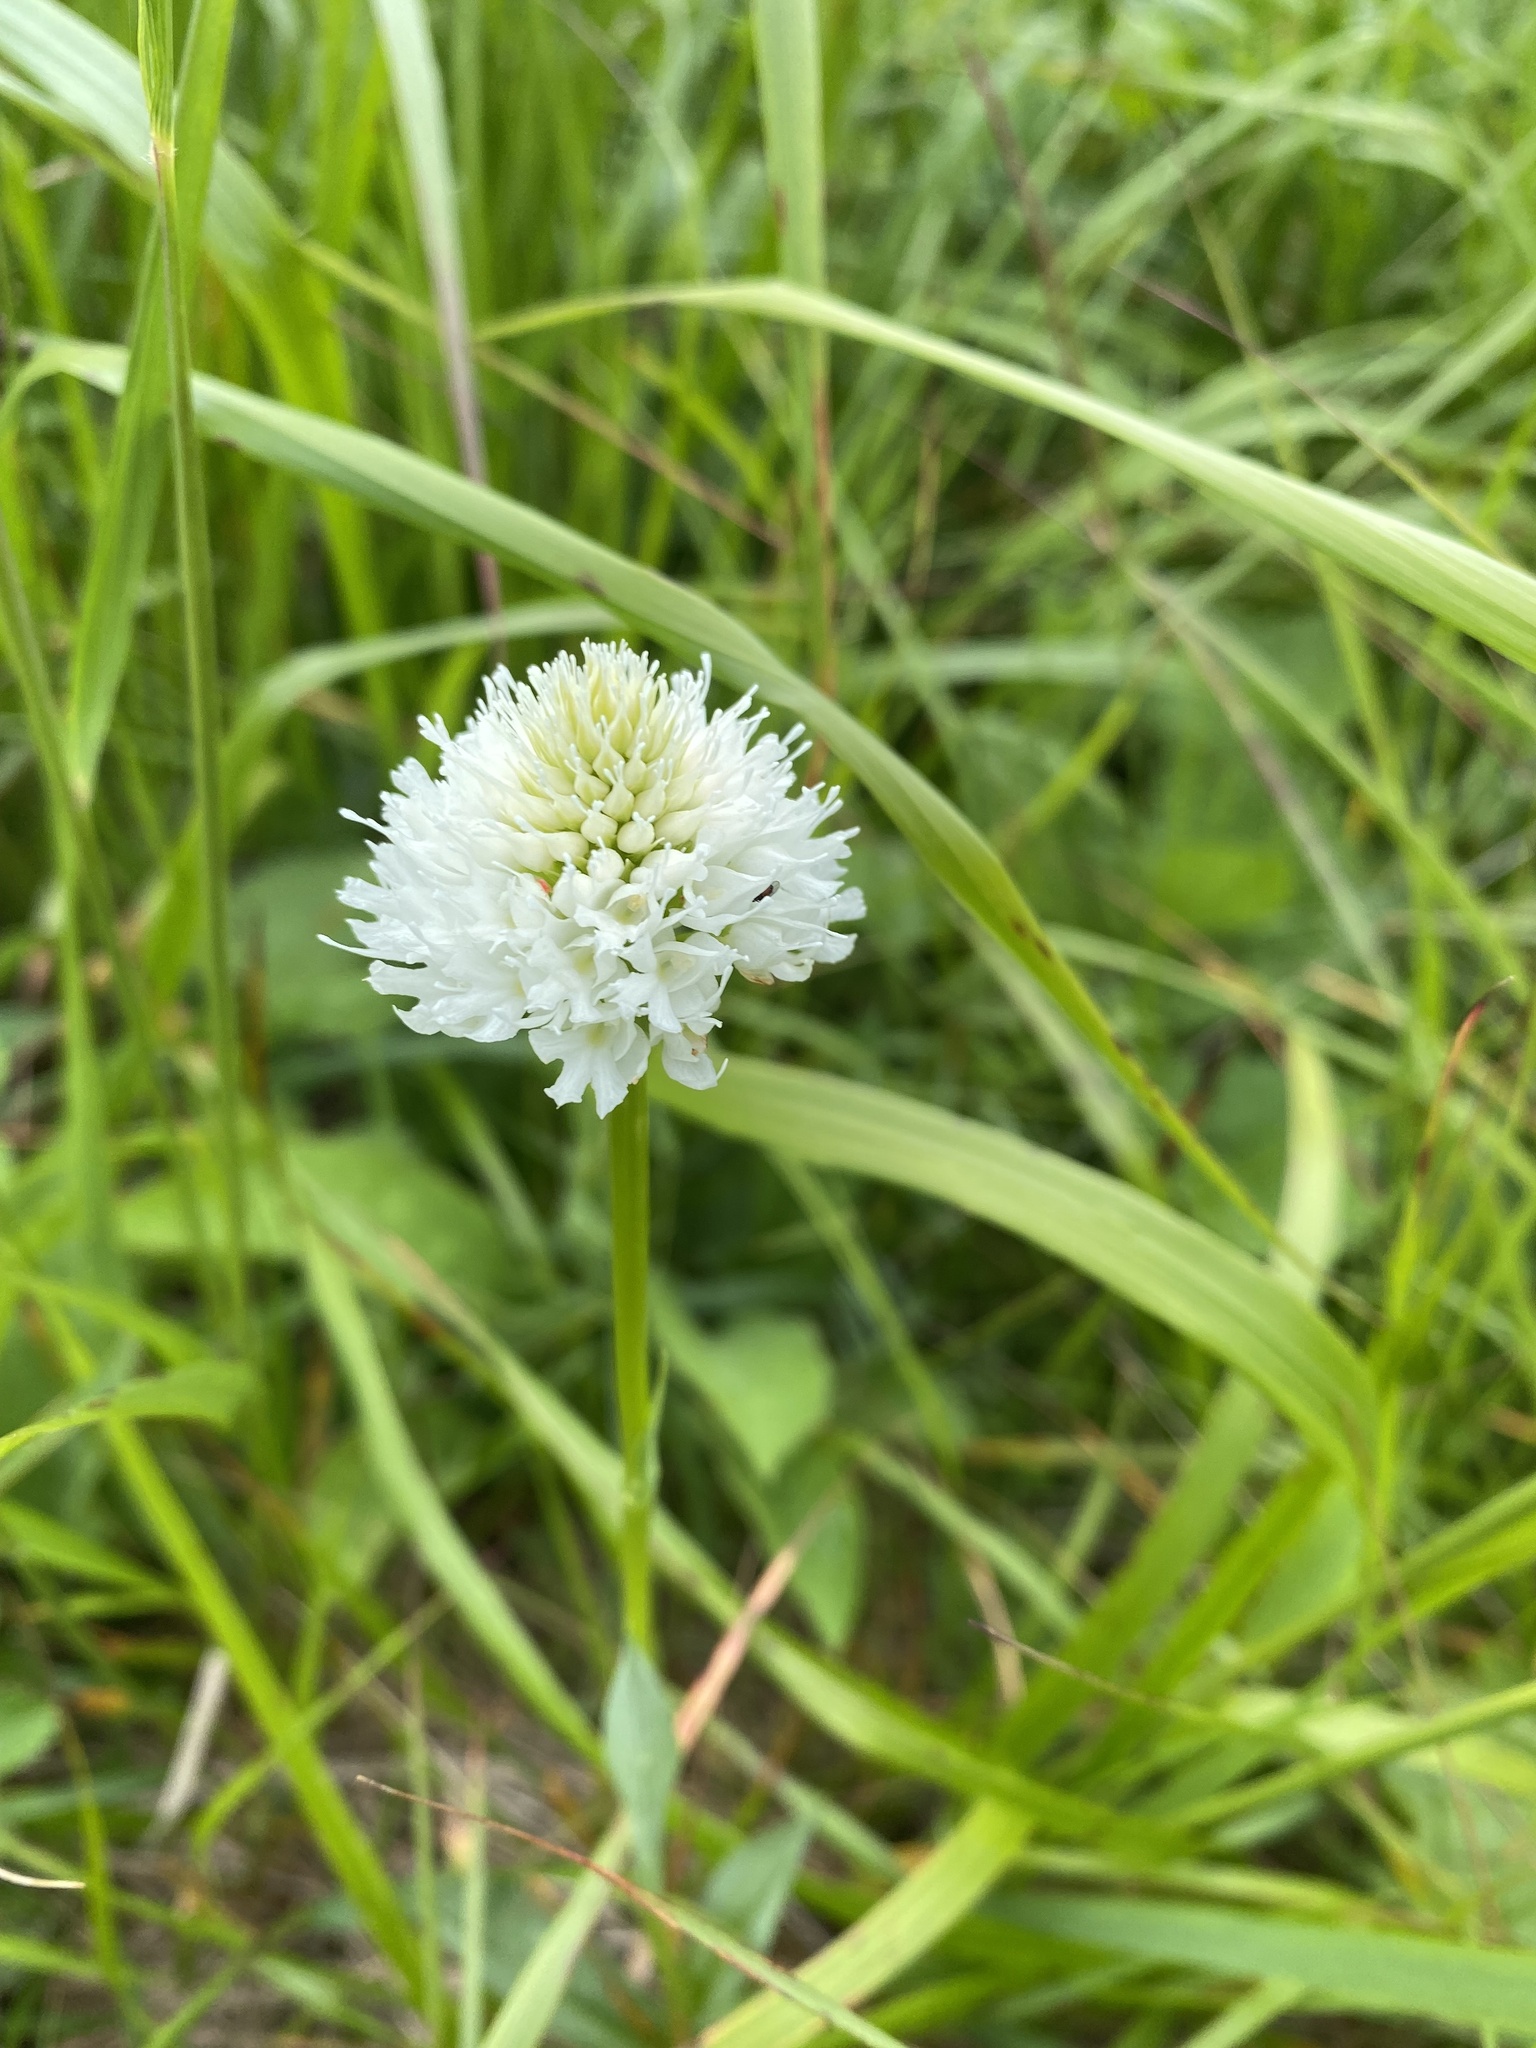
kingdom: Plantae
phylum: Tracheophyta
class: Liliopsida
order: Asparagales
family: Orchidaceae
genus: Traunsteinera
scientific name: Traunsteinera sphaerica
